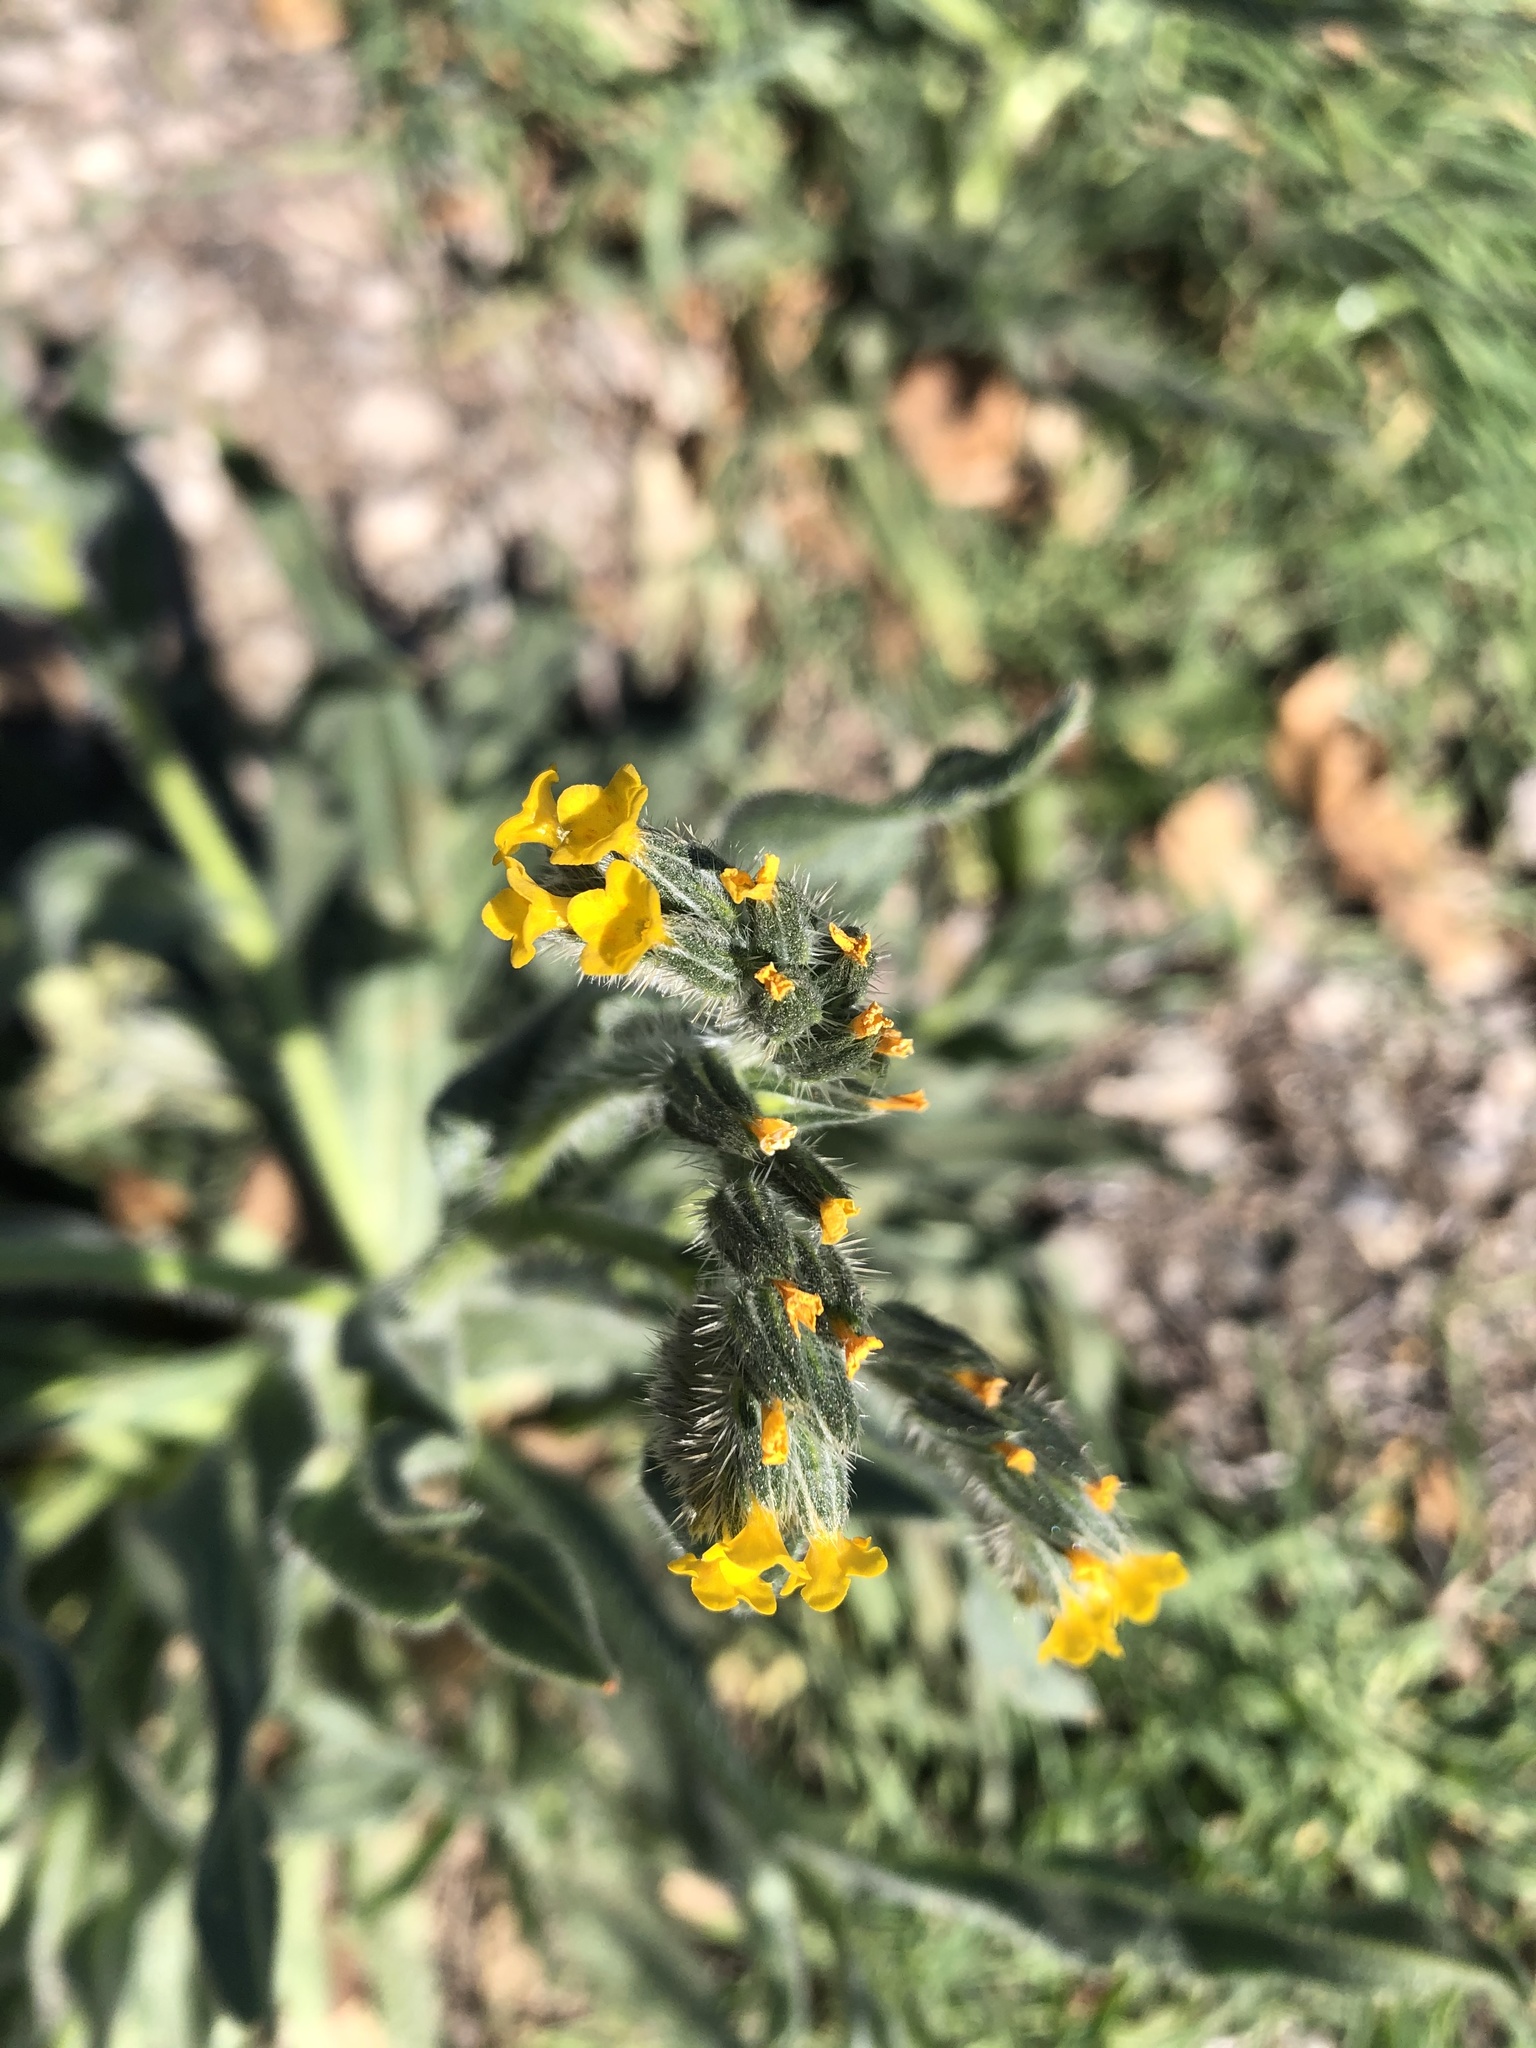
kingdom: Plantae
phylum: Tracheophyta
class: Magnoliopsida
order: Boraginales
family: Boraginaceae
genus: Amsinckia
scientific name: Amsinckia tessellata
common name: Tessellate fiddleneck
